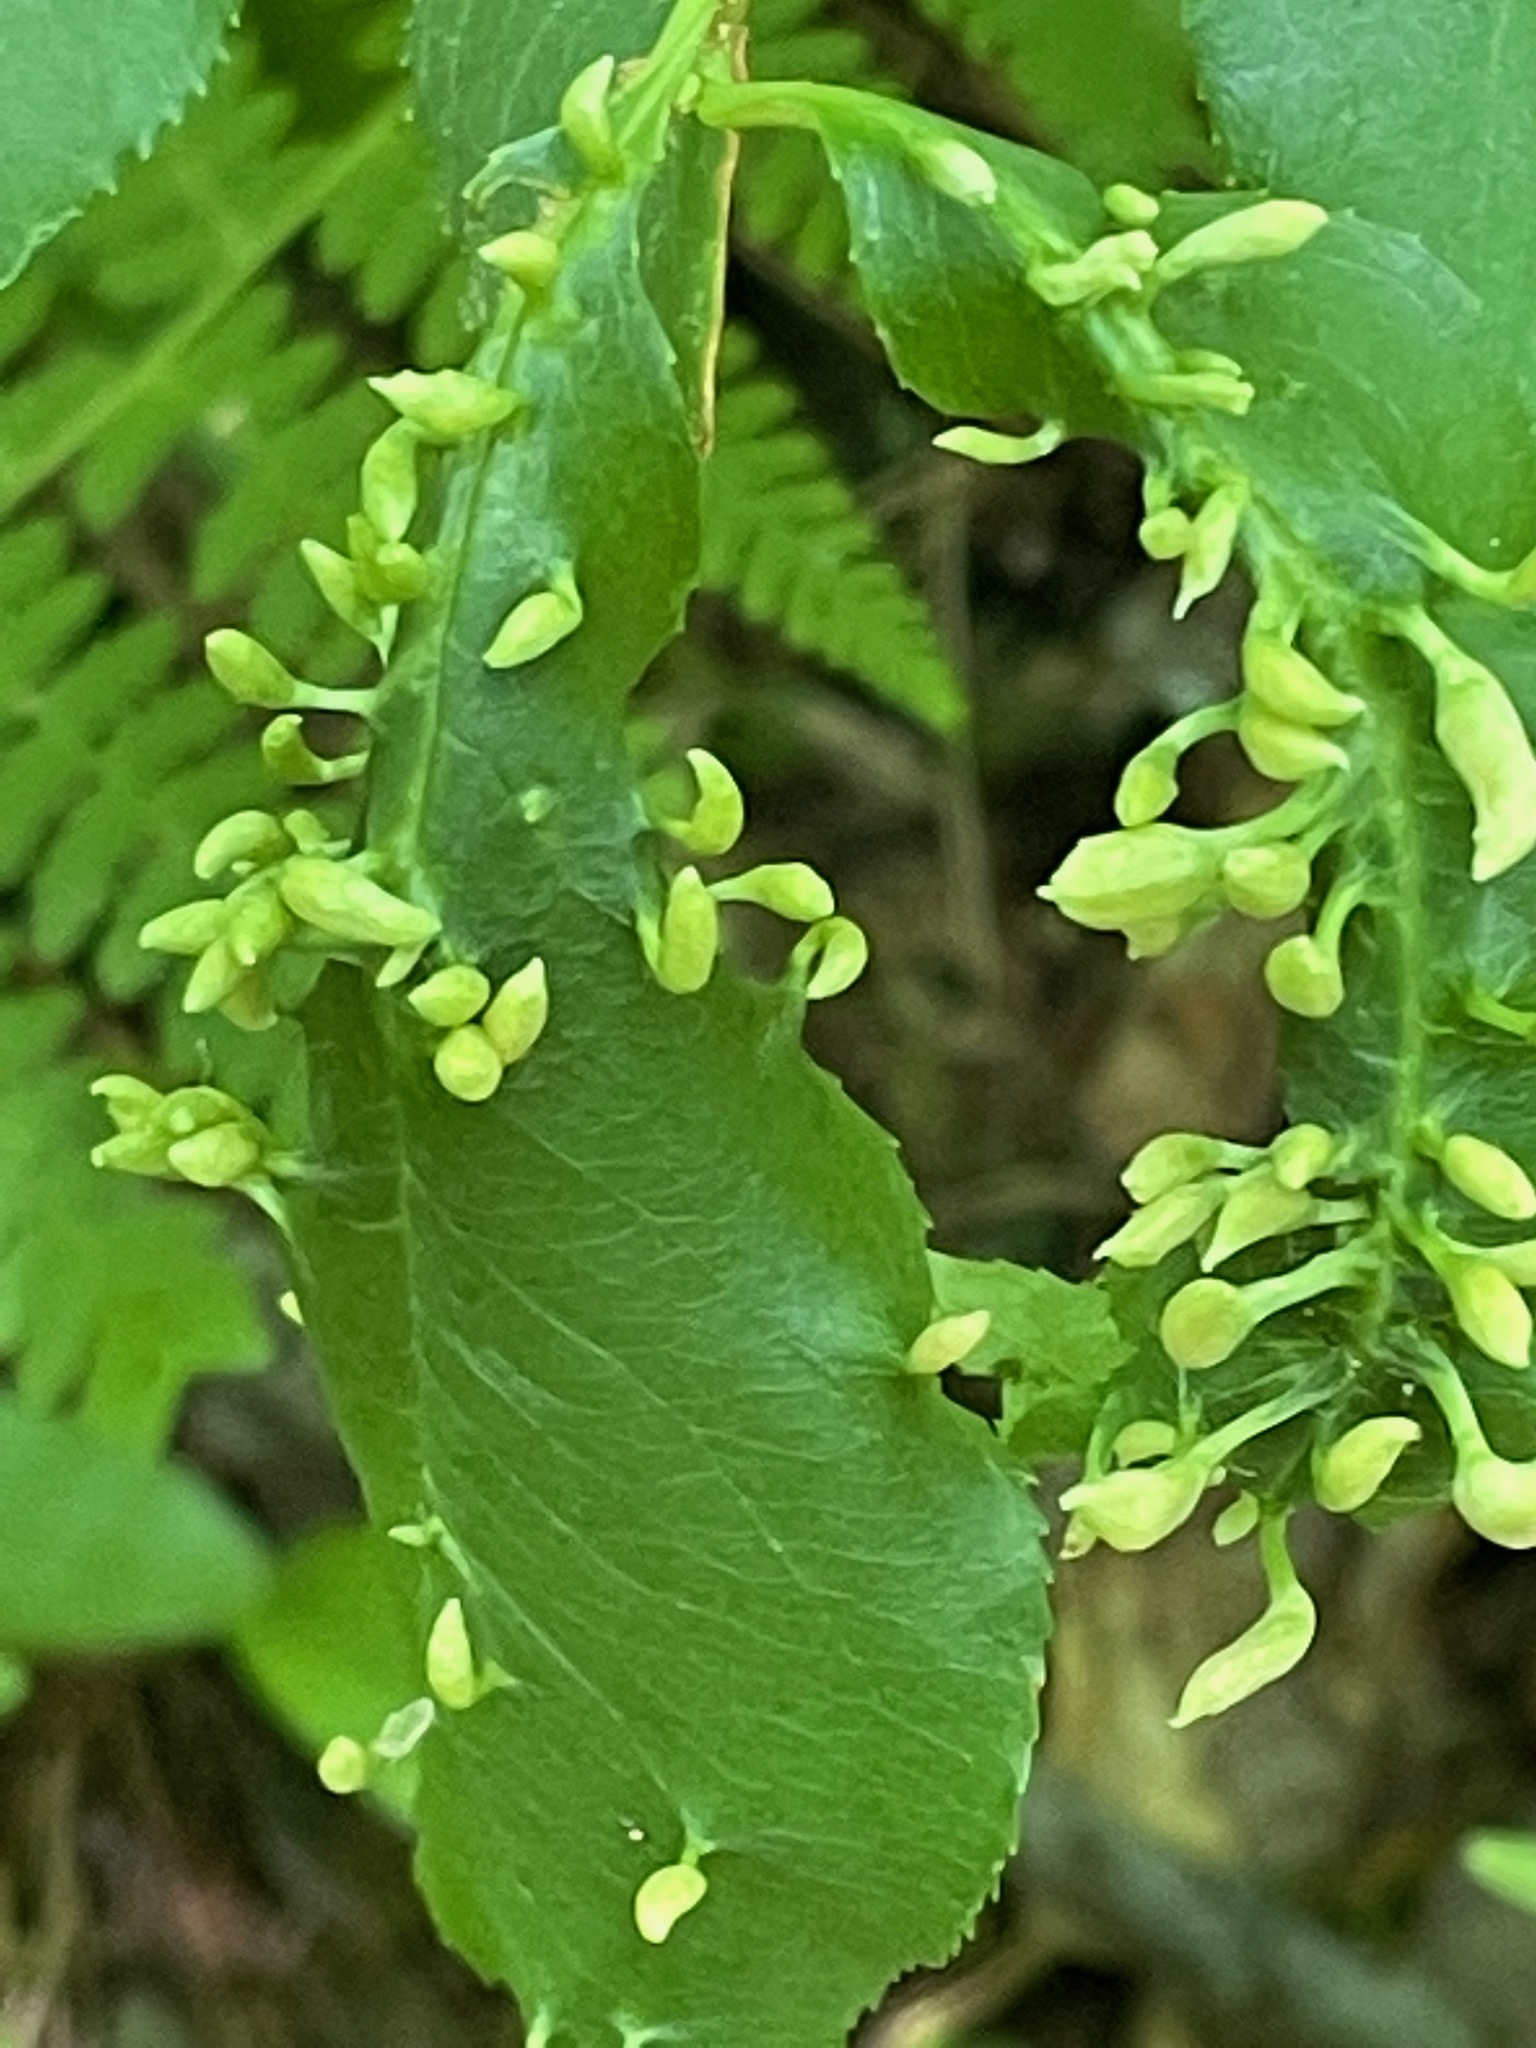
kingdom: Animalia
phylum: Arthropoda
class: Arachnida
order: Trombidiformes
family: Eriophyidae
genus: Eriophyes
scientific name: Eriophyes
